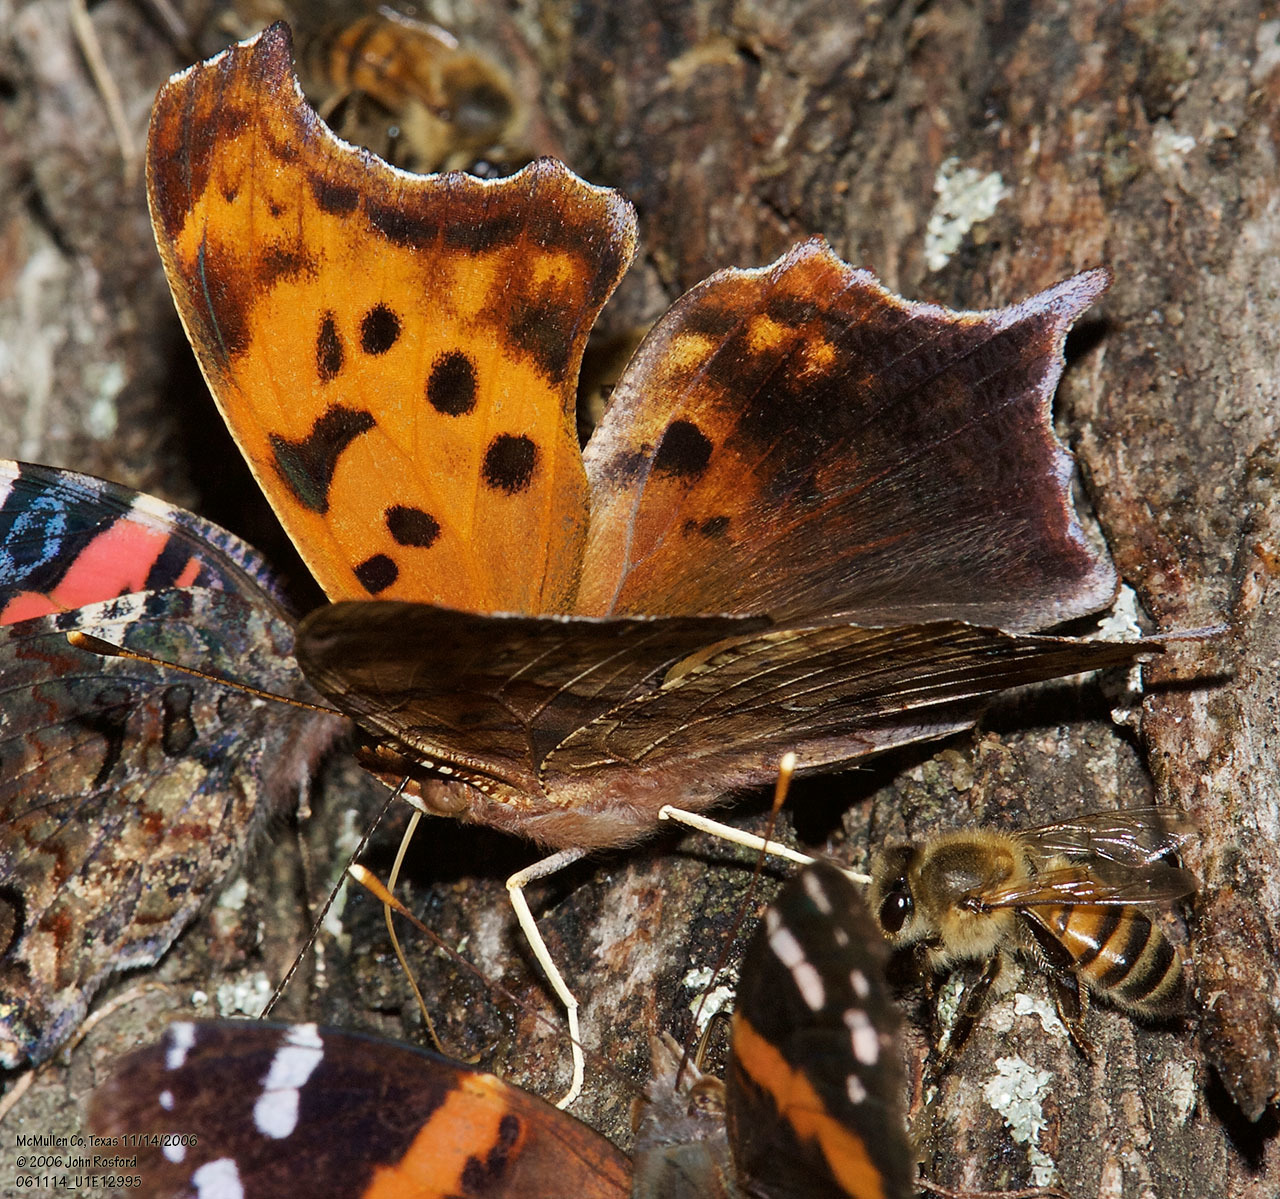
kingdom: Animalia
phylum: Arthropoda
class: Insecta
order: Lepidoptera
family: Nymphalidae
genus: Polygonia
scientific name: Polygonia interrogationis
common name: Question mark
